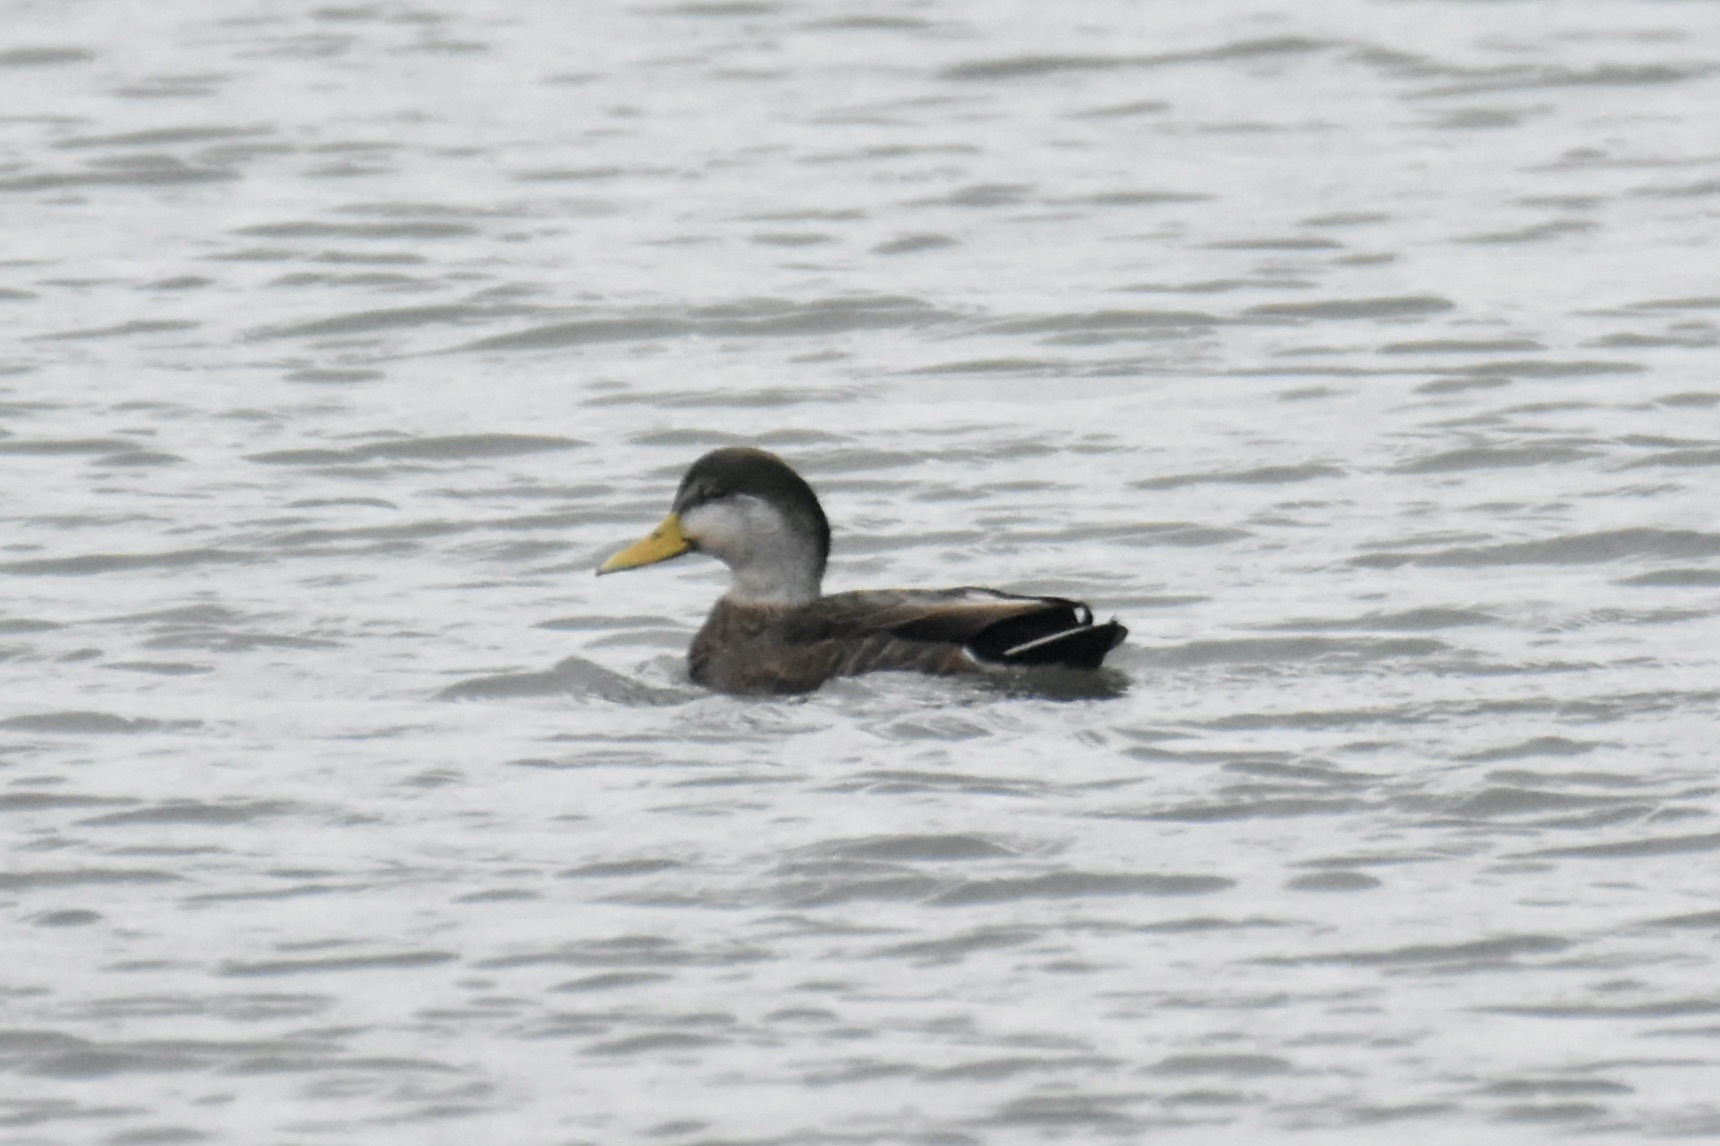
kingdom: Animalia
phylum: Chordata
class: Aves
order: Anseriformes
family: Anatidae
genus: Anas
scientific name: Anas
